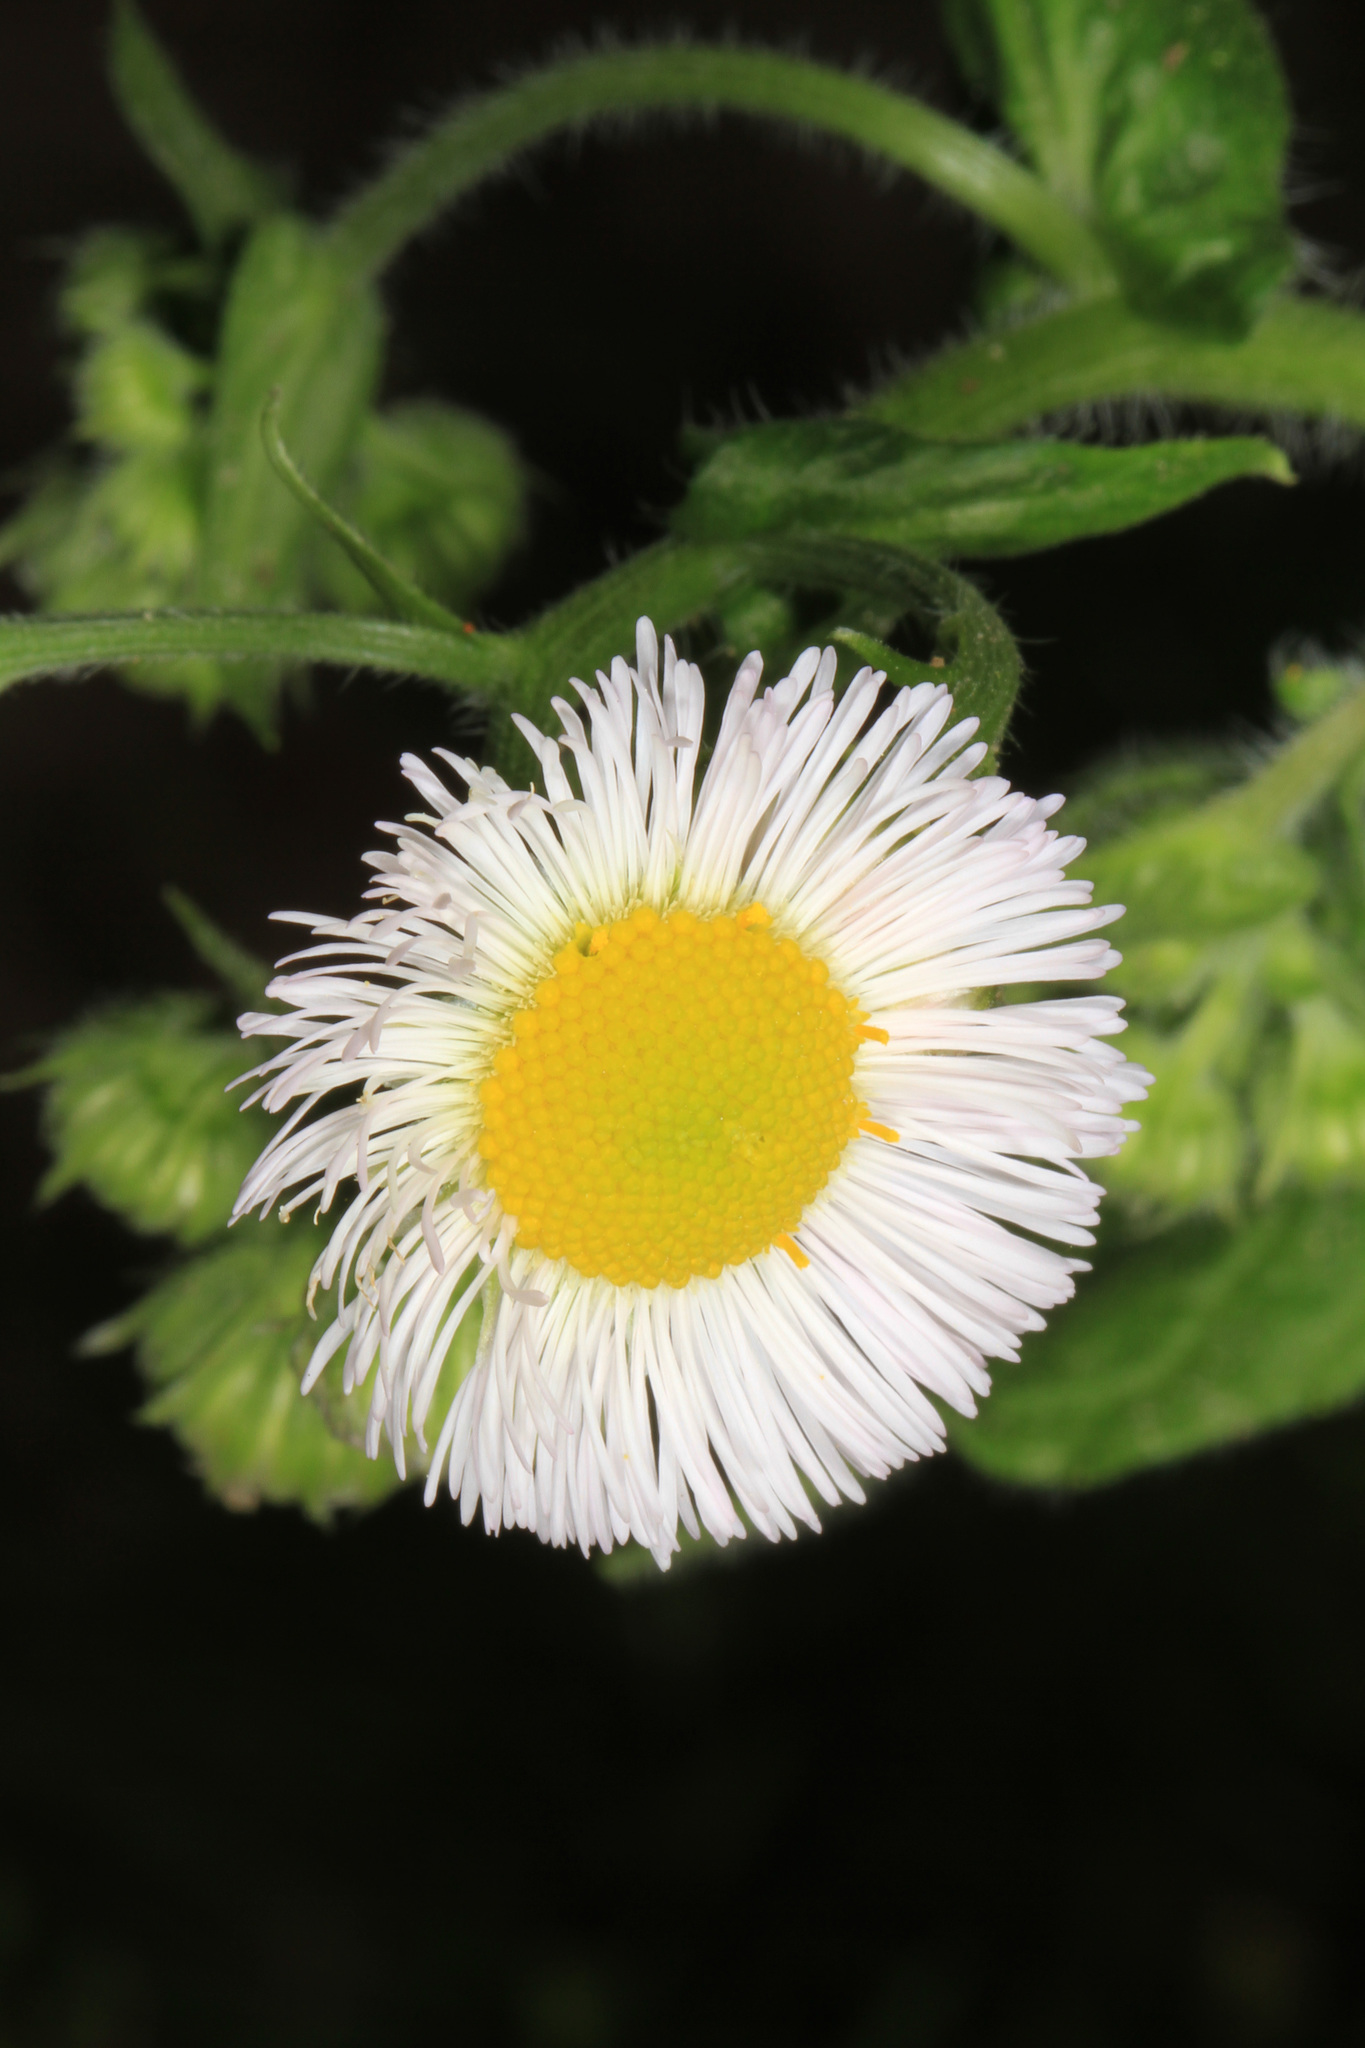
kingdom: Plantae
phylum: Tracheophyta
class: Magnoliopsida
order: Asterales
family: Asteraceae
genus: Erigeron
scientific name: Erigeron philadelphicus
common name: Robin's-plantain
